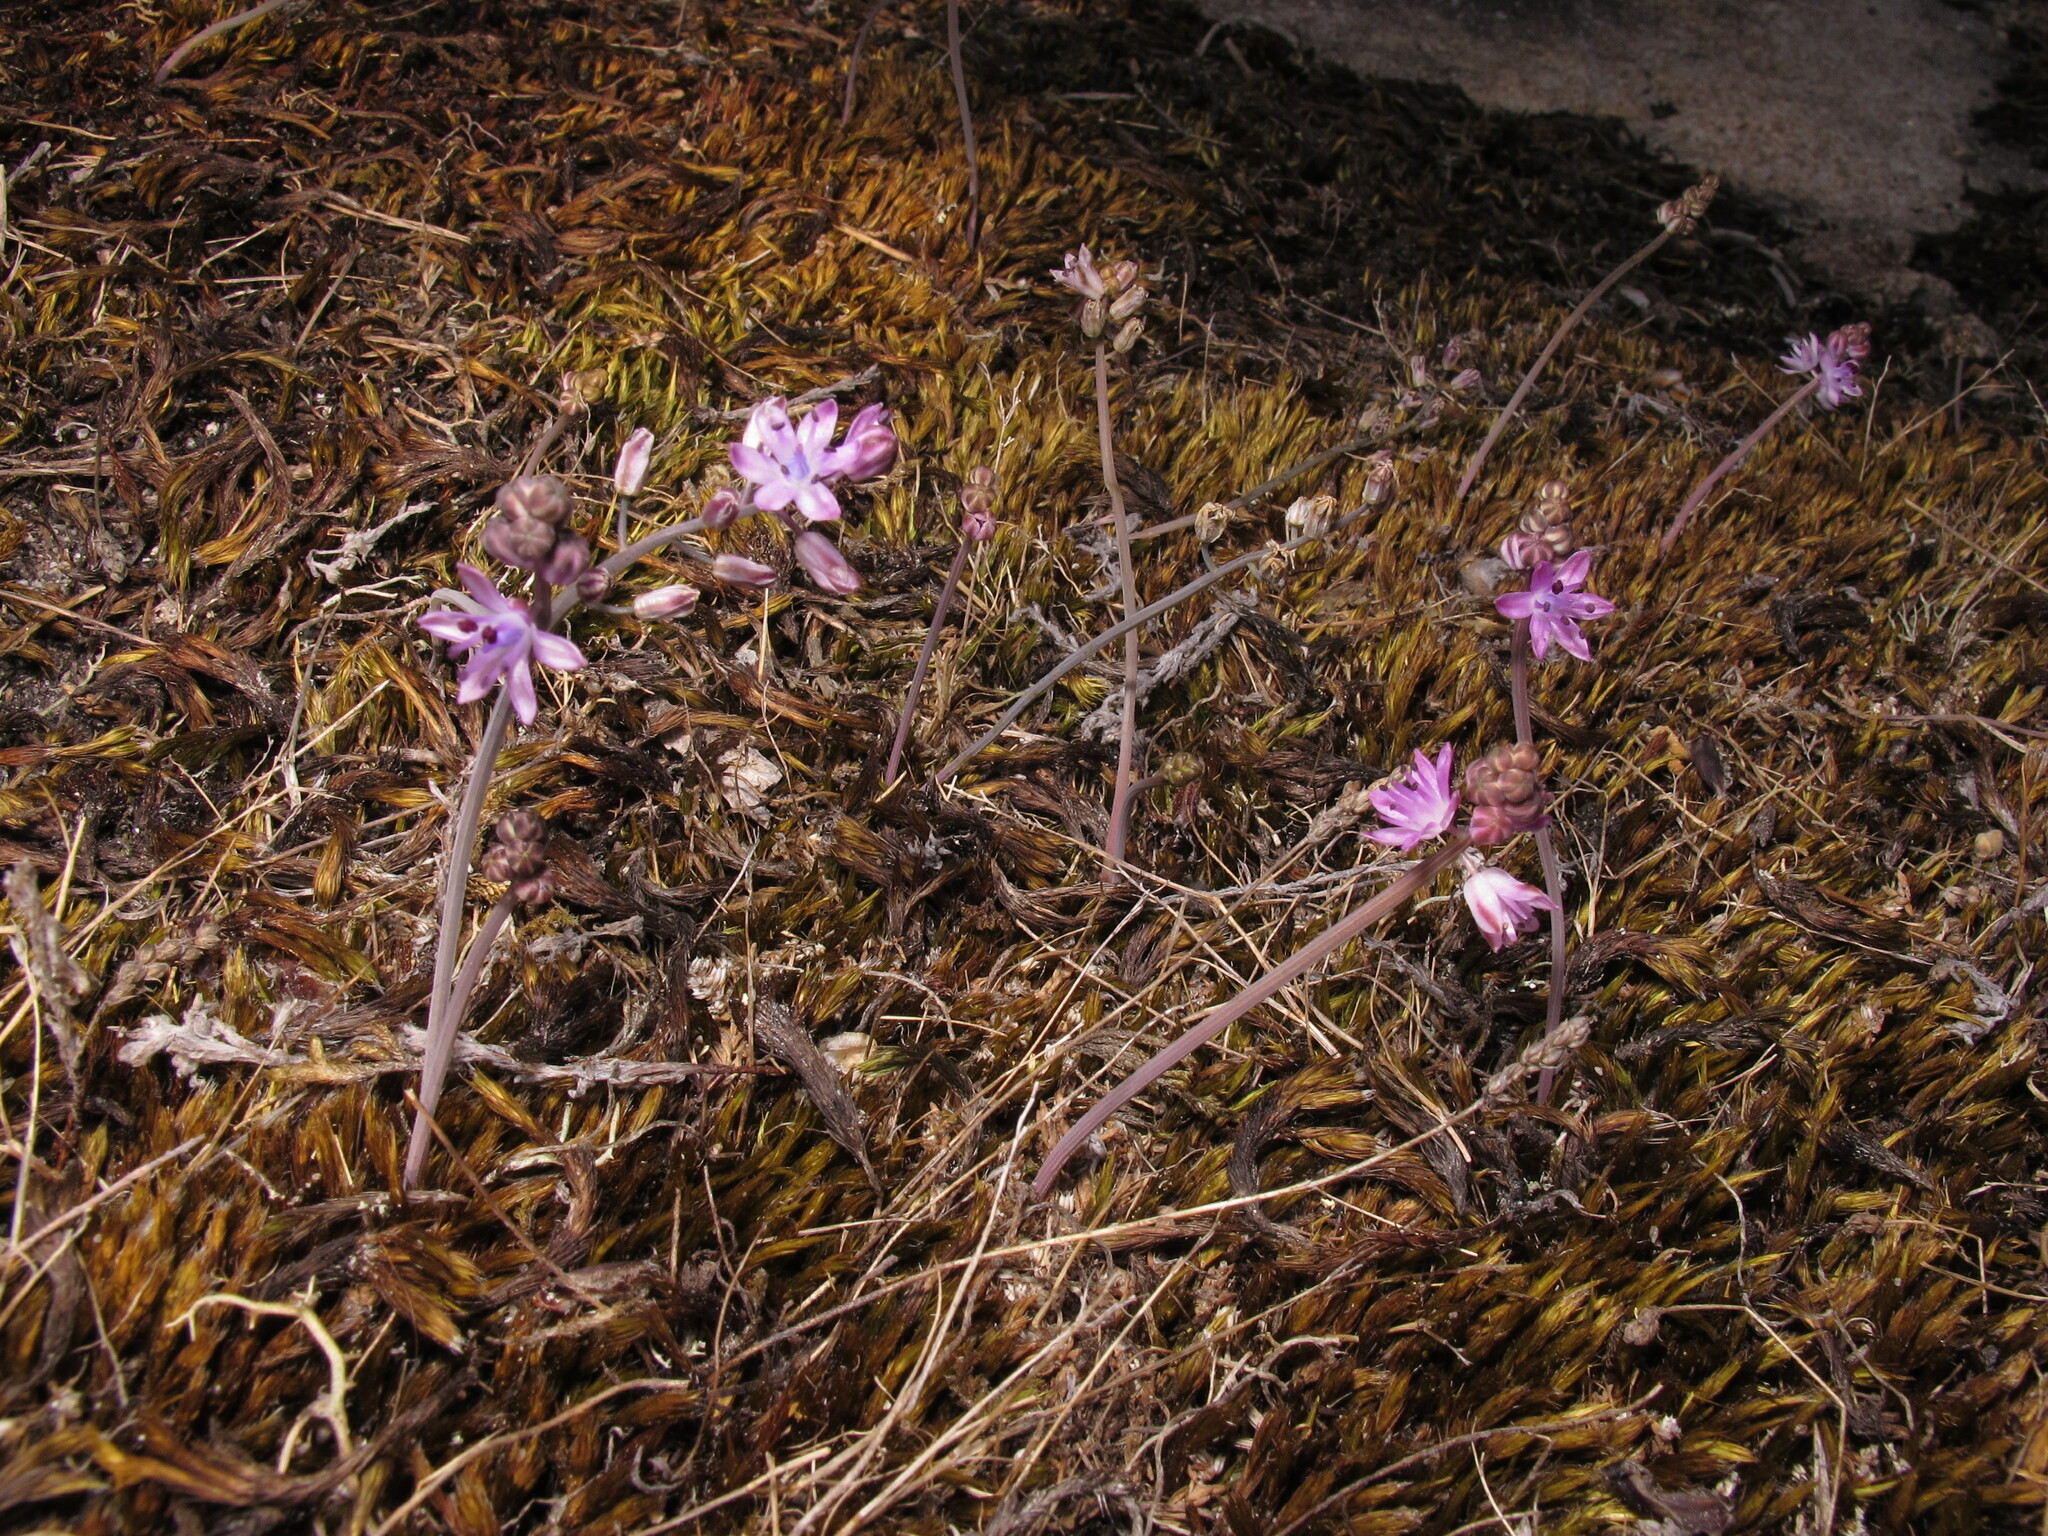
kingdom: Plantae
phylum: Tracheophyta
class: Liliopsida
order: Asparagales
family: Asparagaceae
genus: Prospero
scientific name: Prospero autumnale
